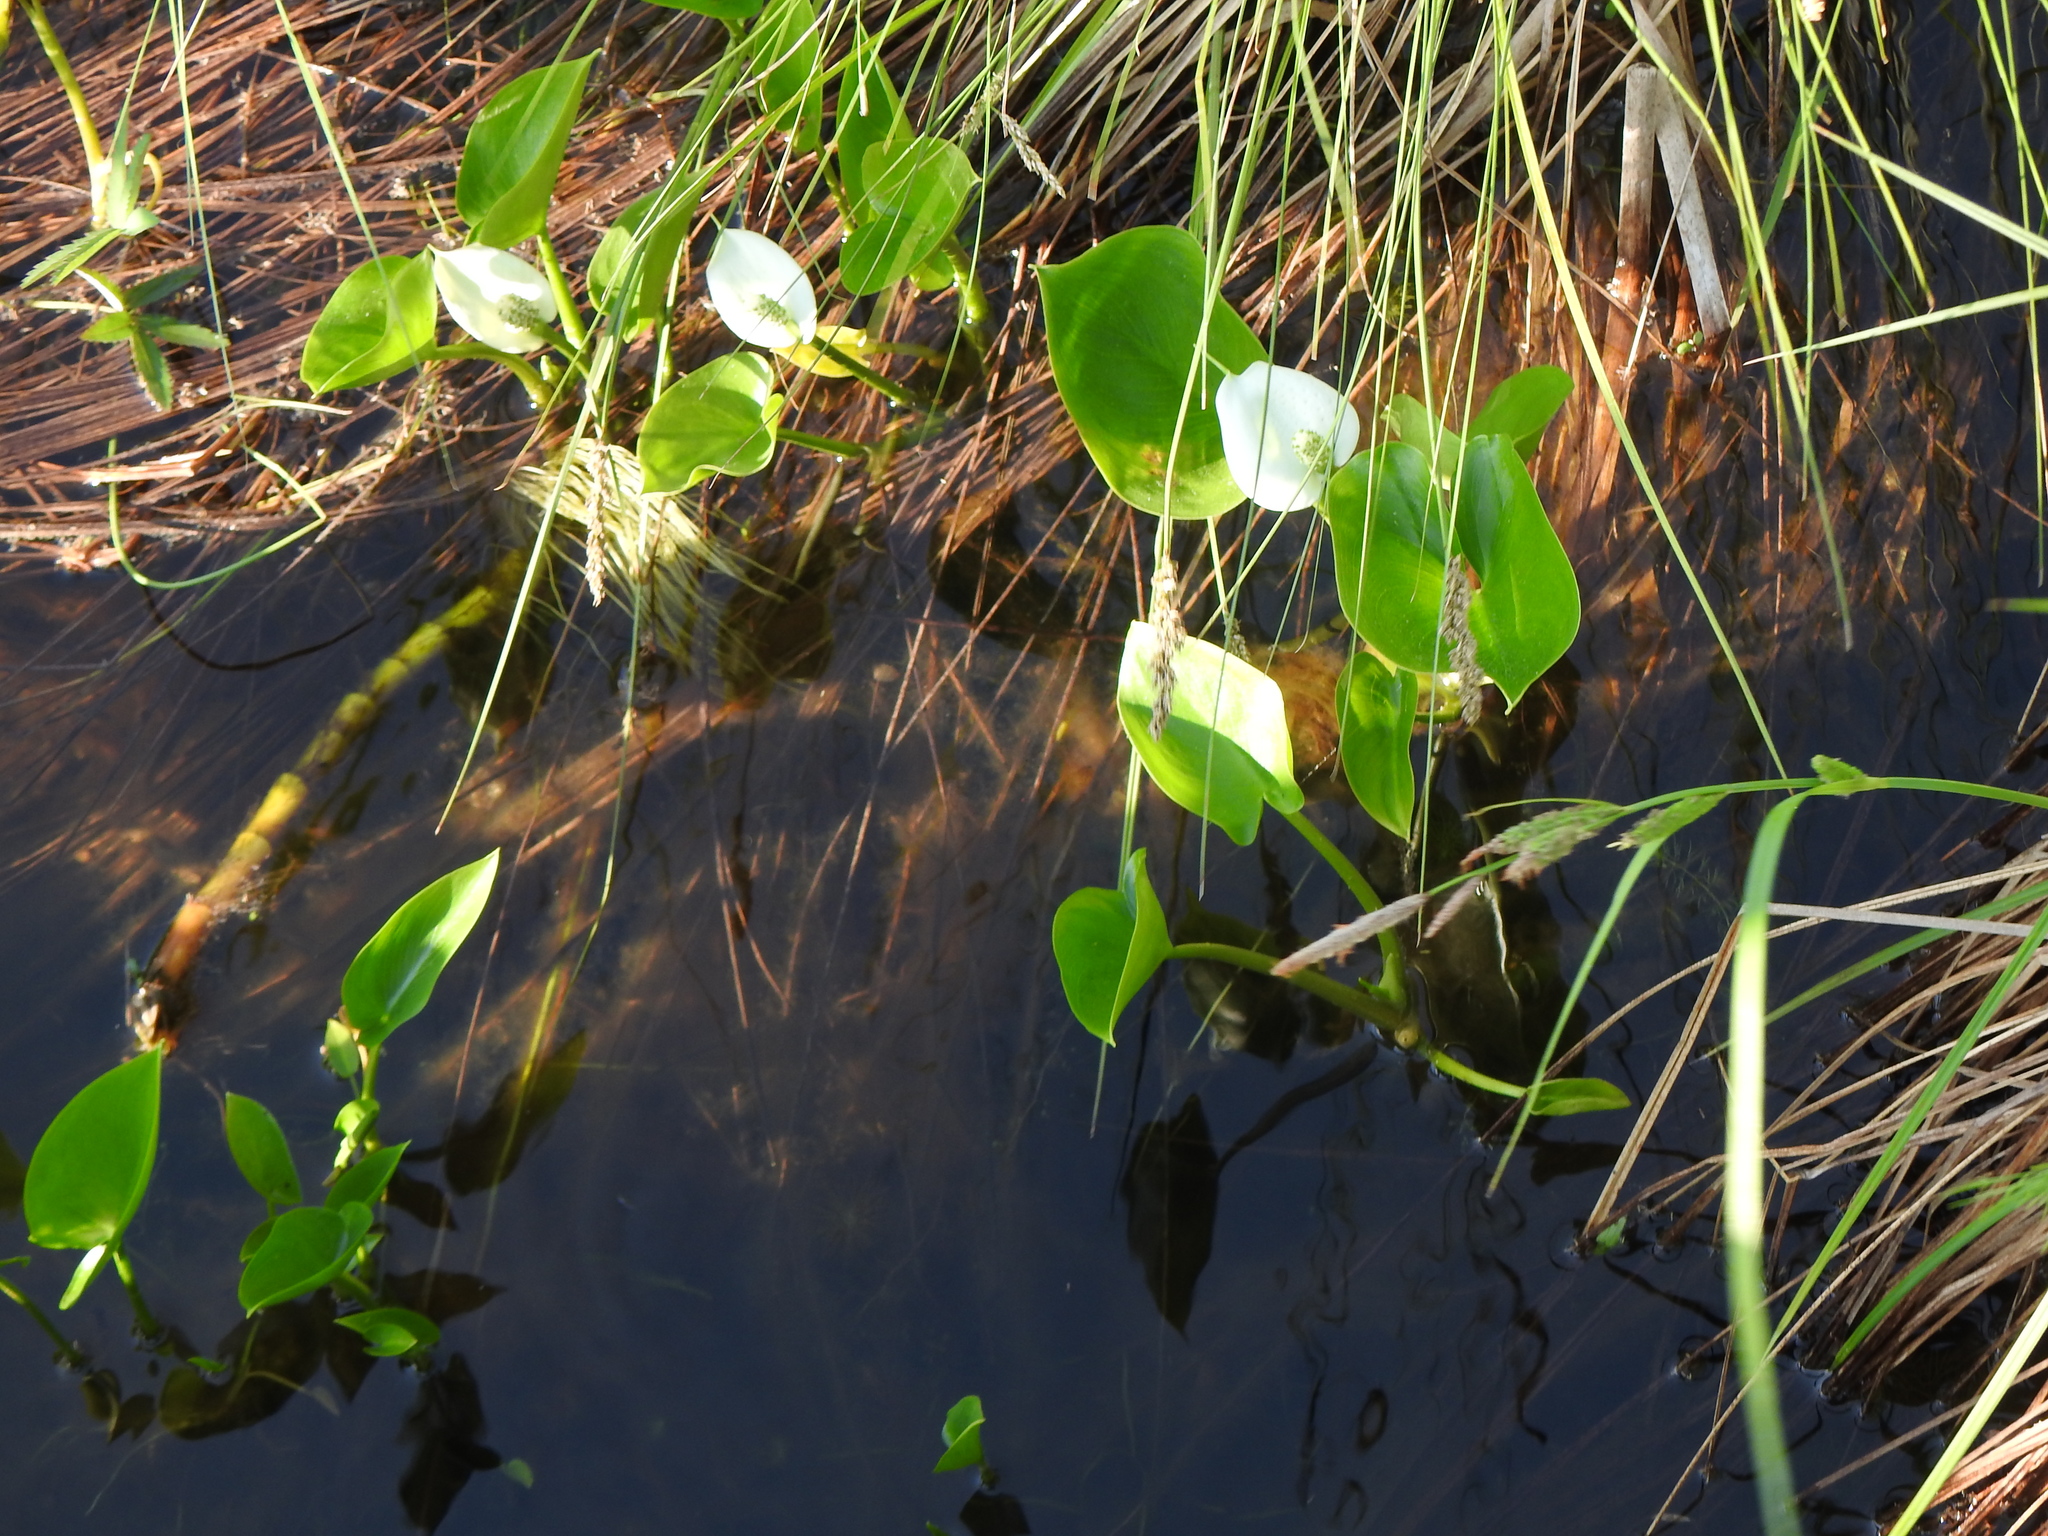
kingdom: Plantae
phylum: Tracheophyta
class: Liliopsida
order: Alismatales
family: Araceae
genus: Calla
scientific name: Calla palustris
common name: Bog arum
